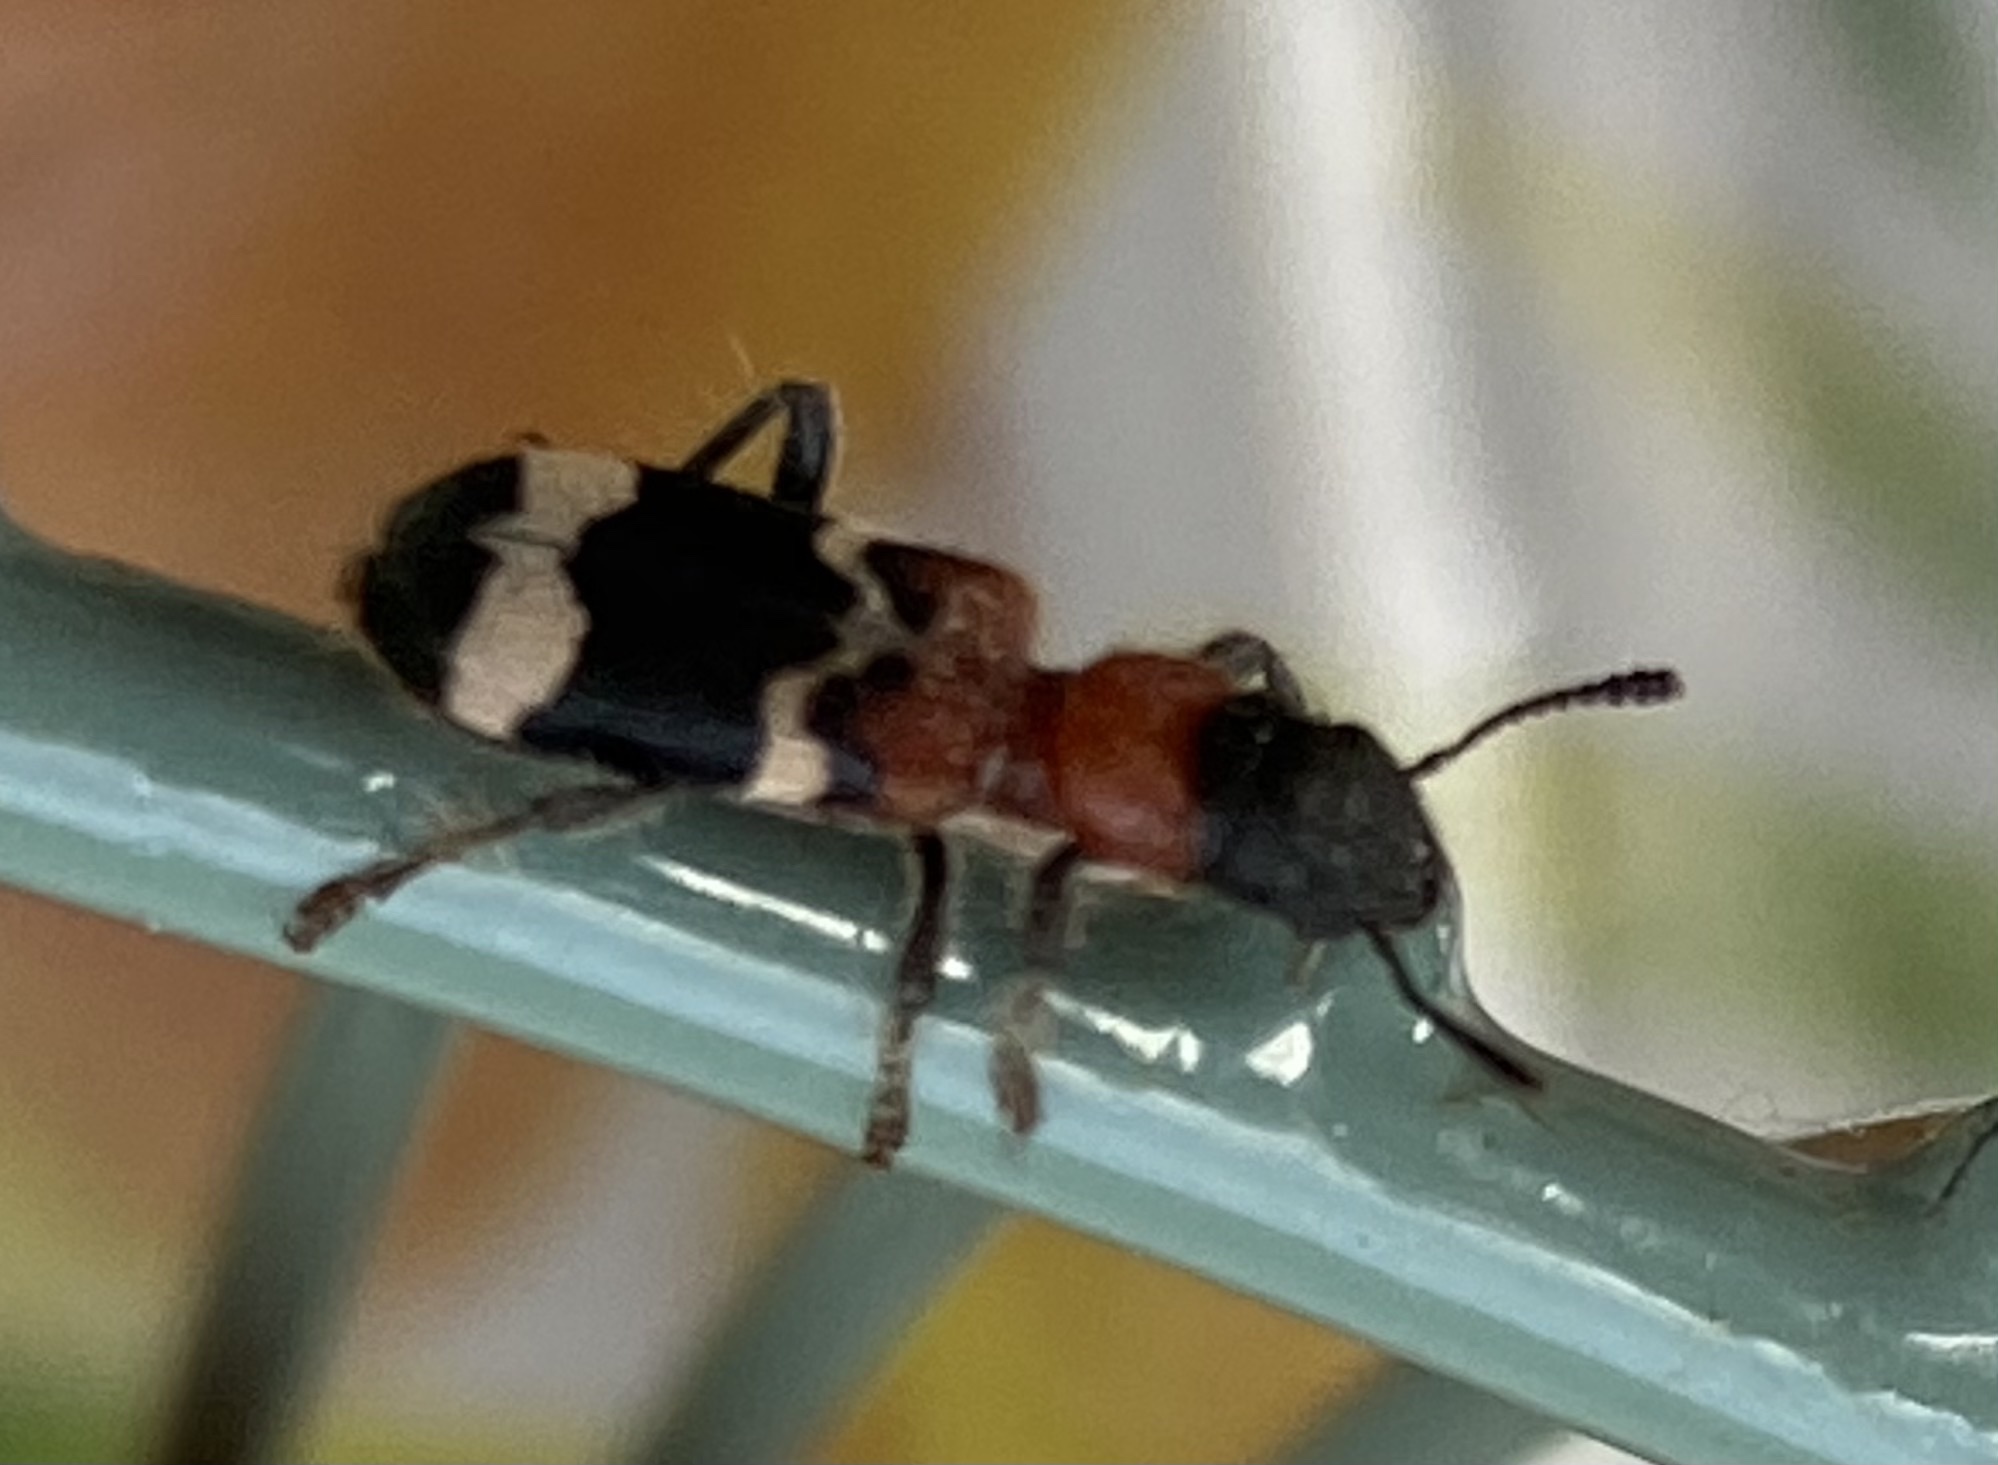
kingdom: Animalia
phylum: Arthropoda
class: Insecta
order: Coleoptera
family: Cleridae
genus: Thanasimus
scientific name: Thanasimus formicarius
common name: Ant beetle
